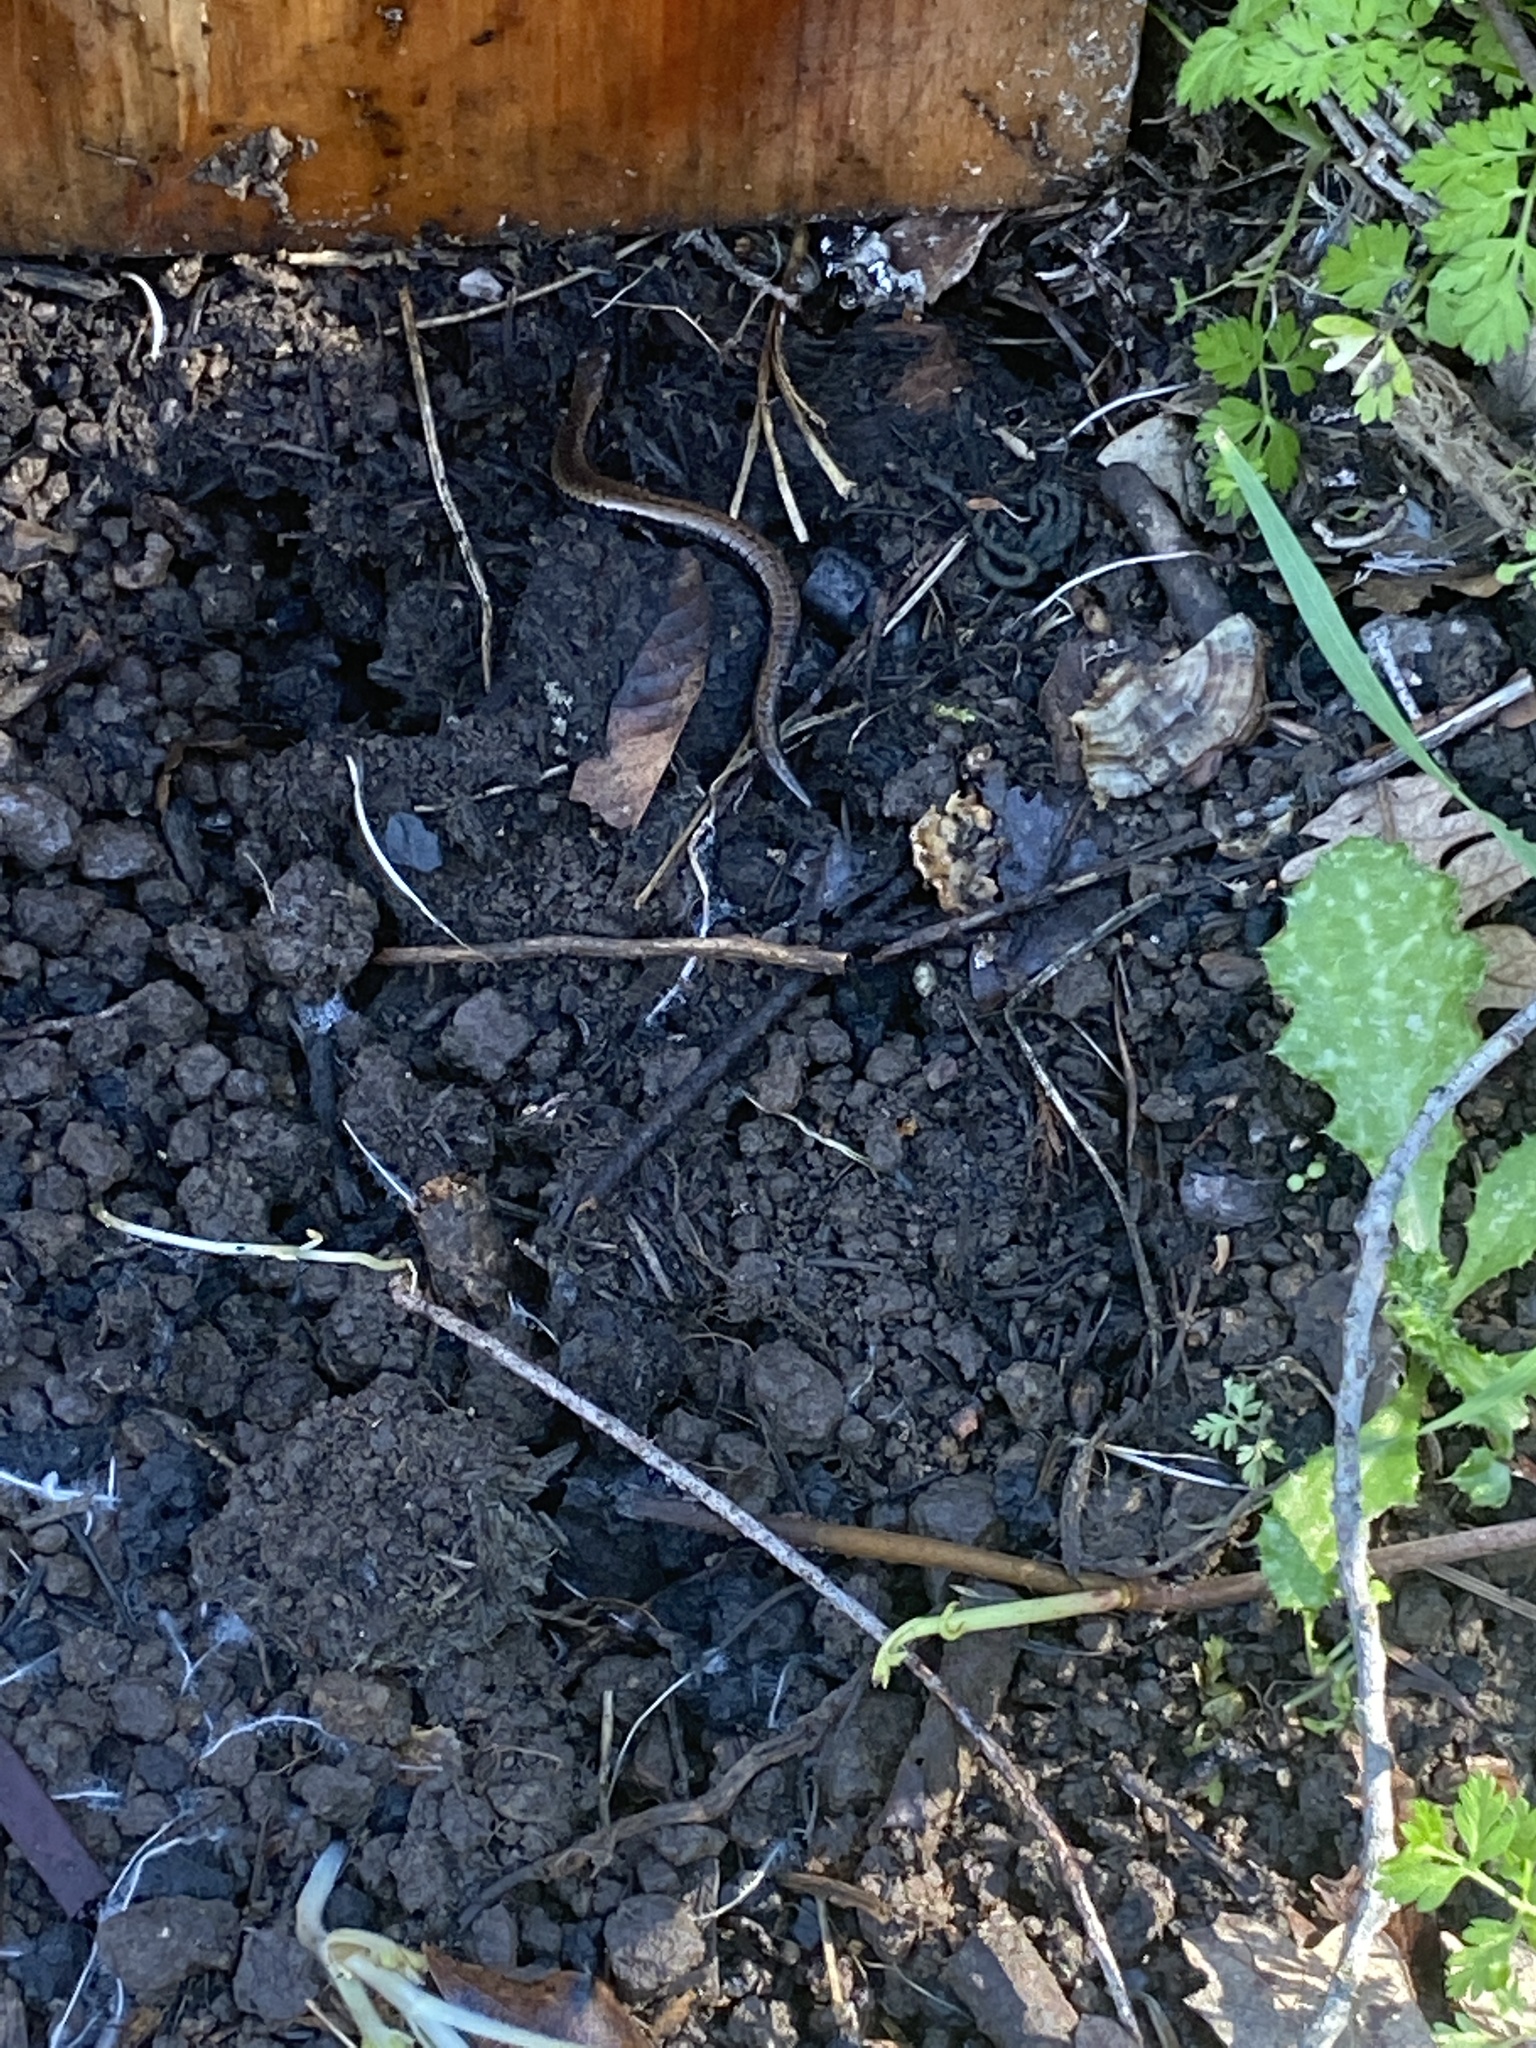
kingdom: Animalia
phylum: Chordata
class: Amphibia
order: Caudata
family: Plethodontidae
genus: Batrachoseps
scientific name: Batrachoseps attenuatus
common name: California slender salamander
